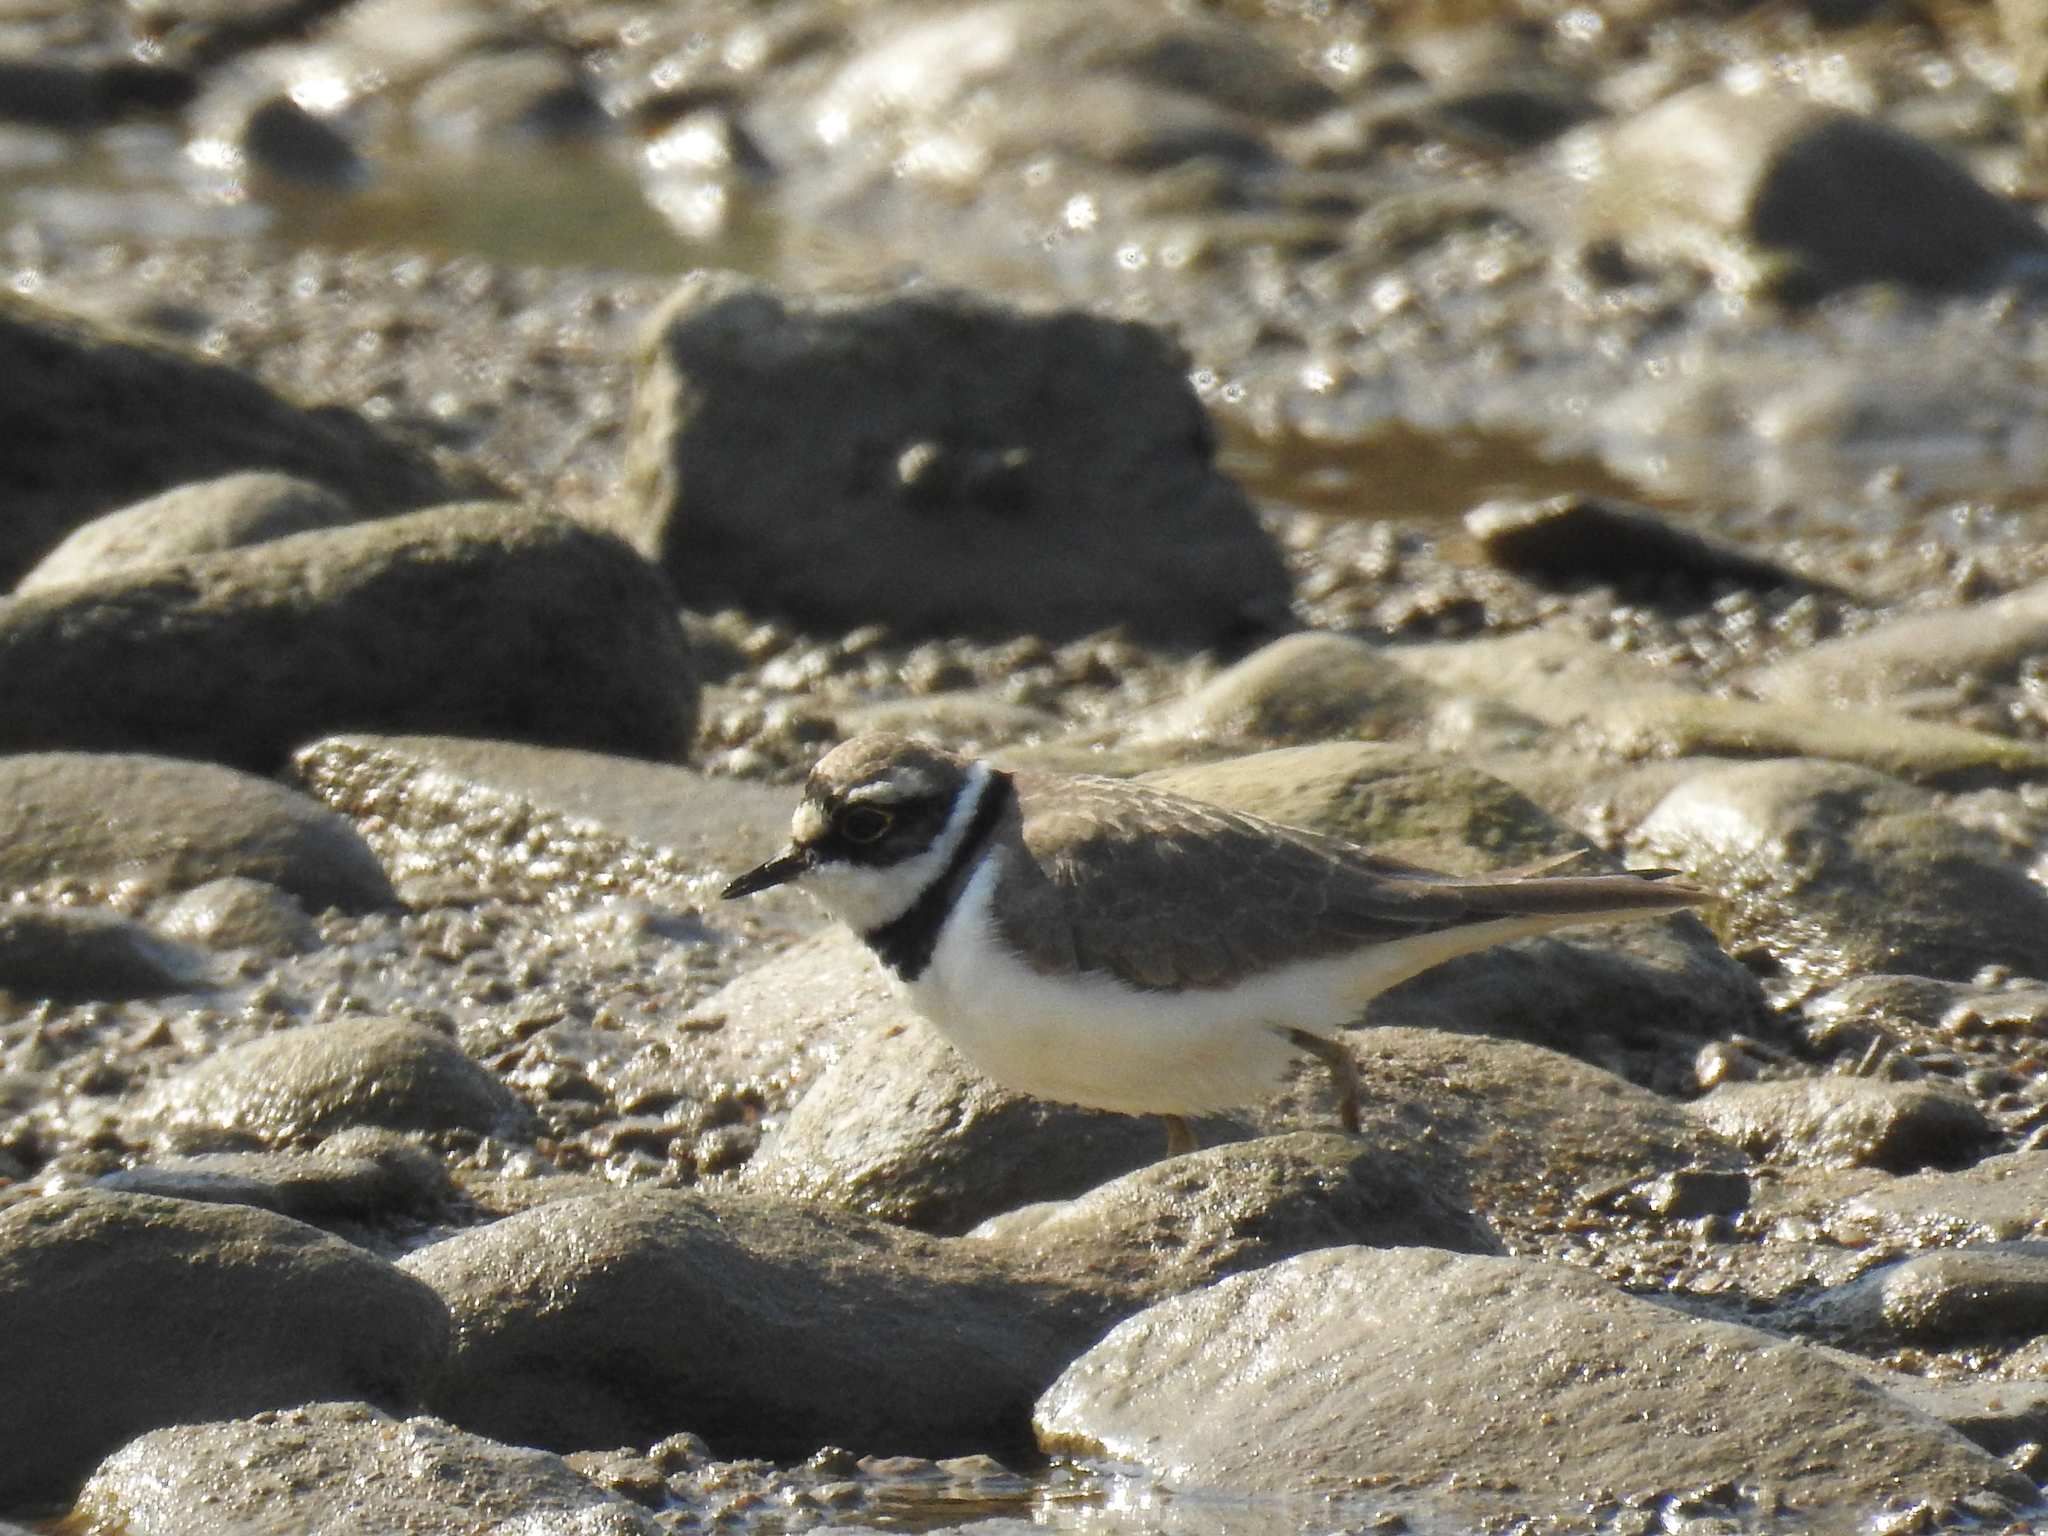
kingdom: Animalia
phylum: Chordata
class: Aves
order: Charadriiformes
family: Charadriidae
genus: Charadrius
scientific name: Charadrius dubius
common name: Little ringed plover
